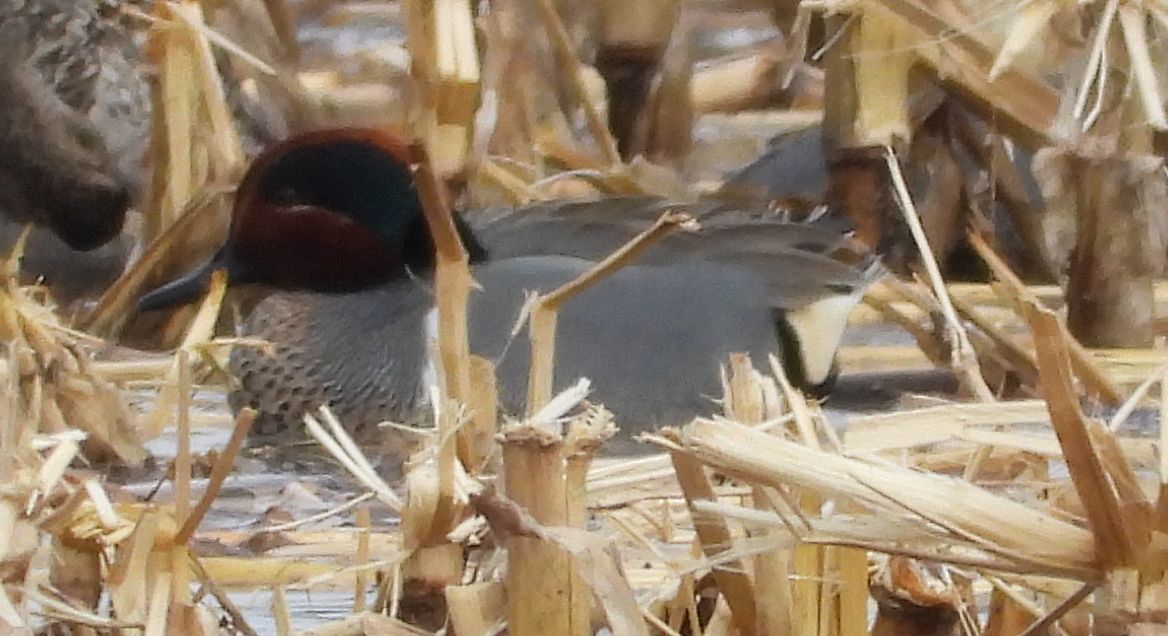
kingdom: Animalia
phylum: Chordata
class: Aves
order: Anseriformes
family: Anatidae
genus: Anas
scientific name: Anas crecca
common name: Eurasian teal
